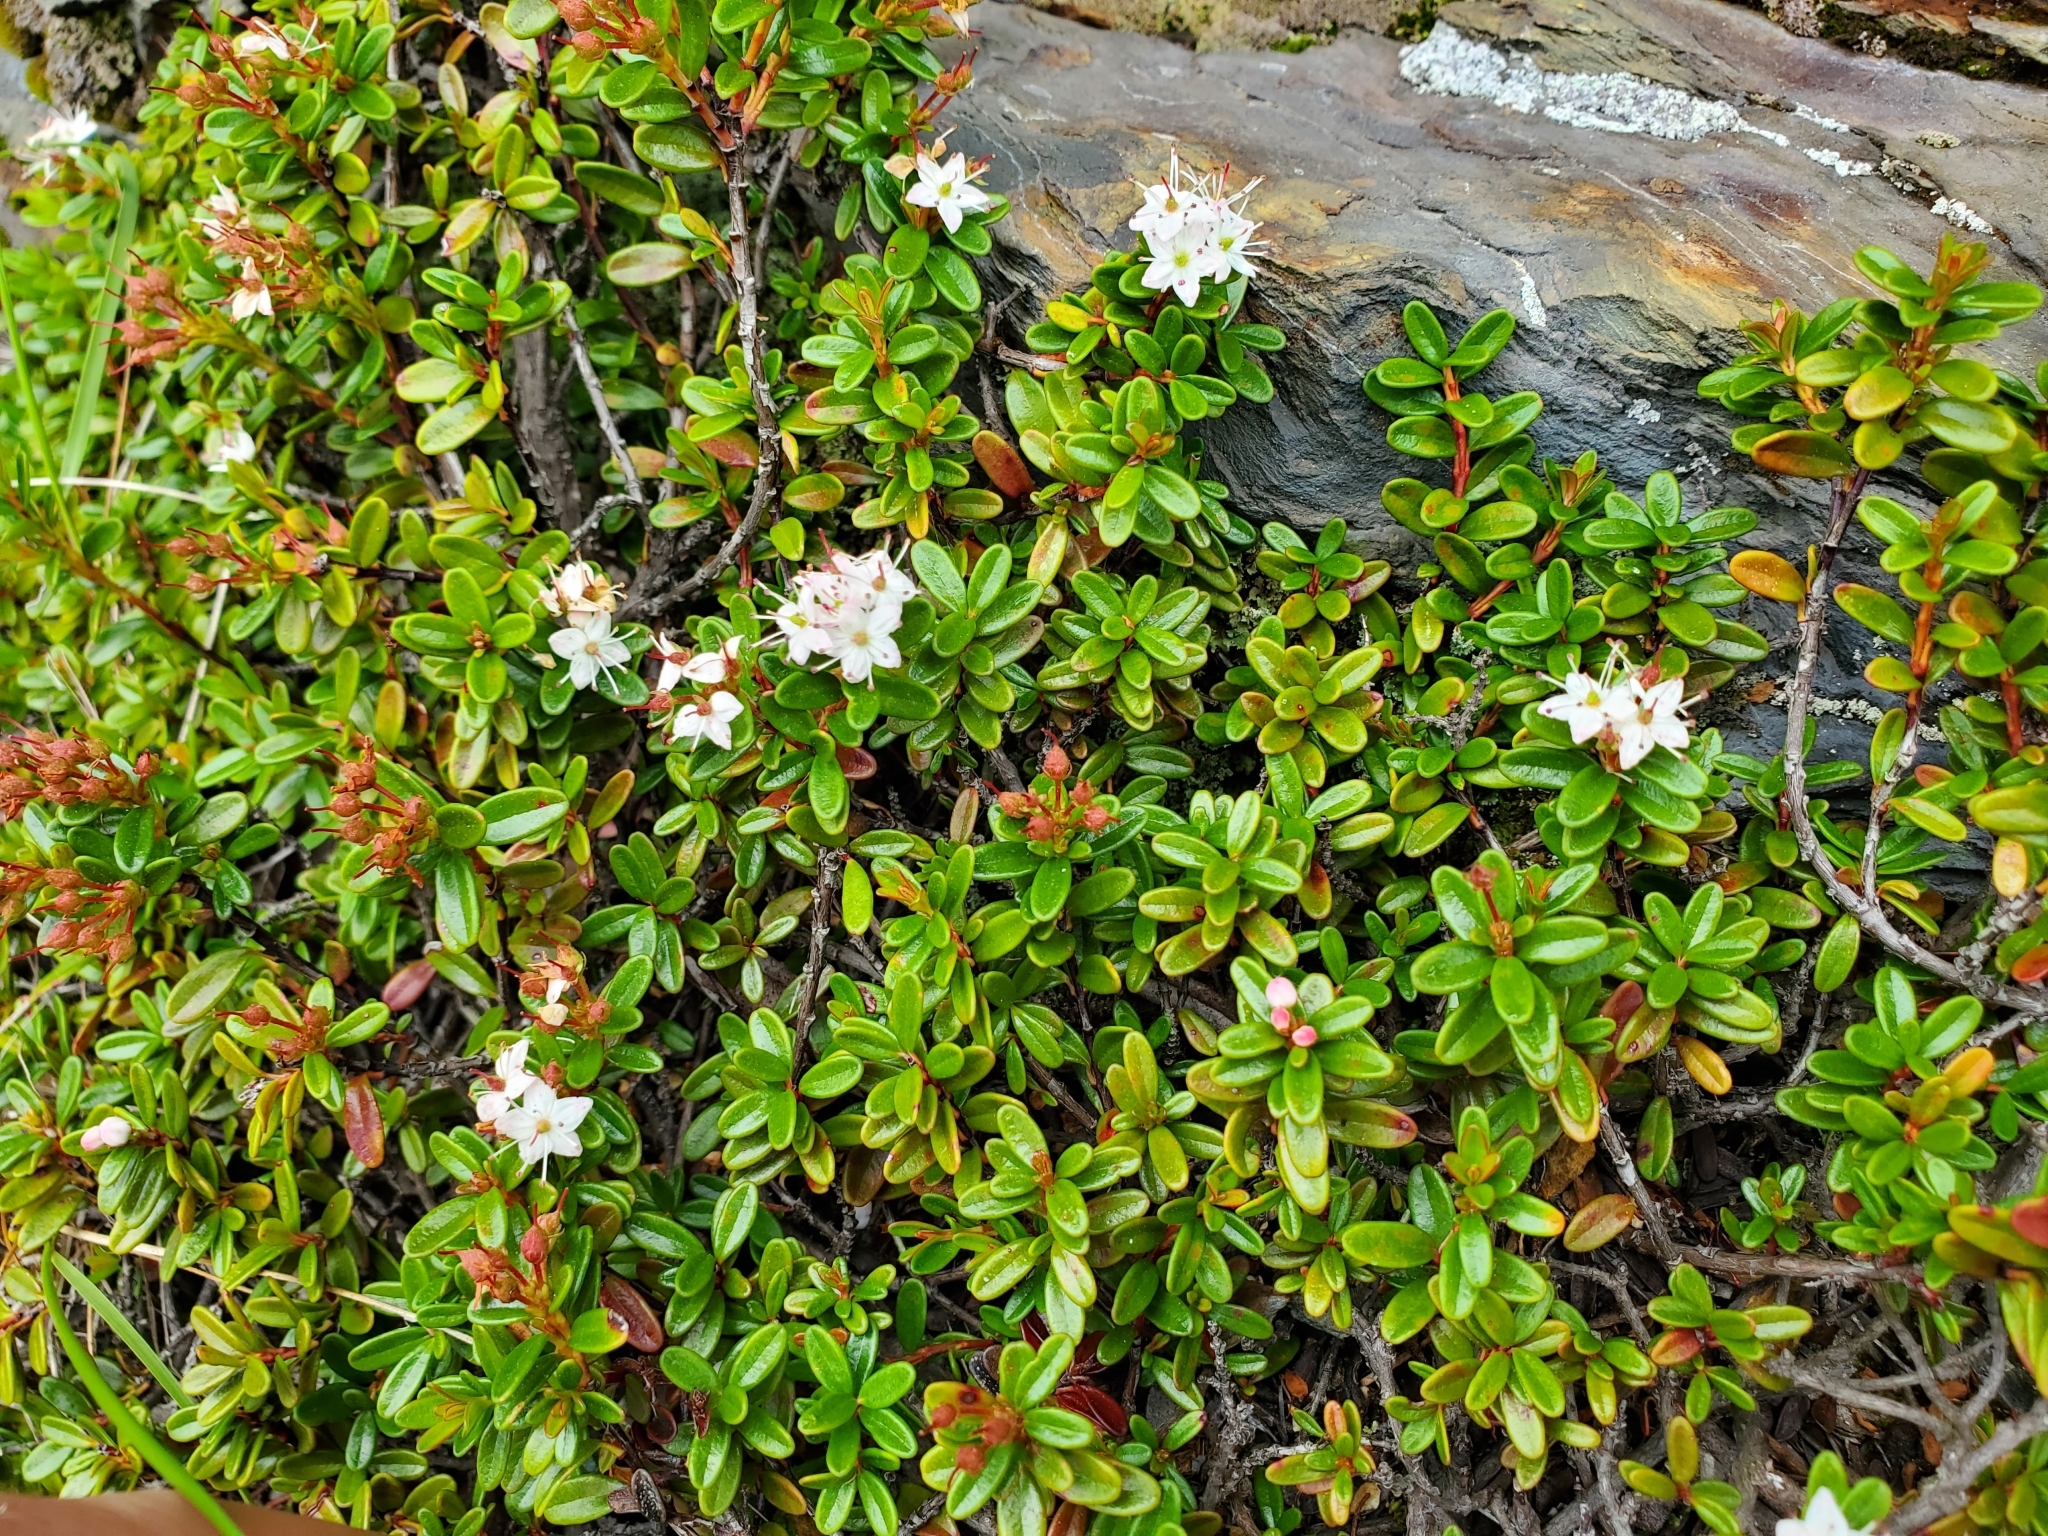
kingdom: Plantae
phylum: Tracheophyta
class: Magnoliopsida
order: Ericales
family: Ericaceae
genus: Kalmia
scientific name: Kalmia buxifolia
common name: Sandmyrtle
